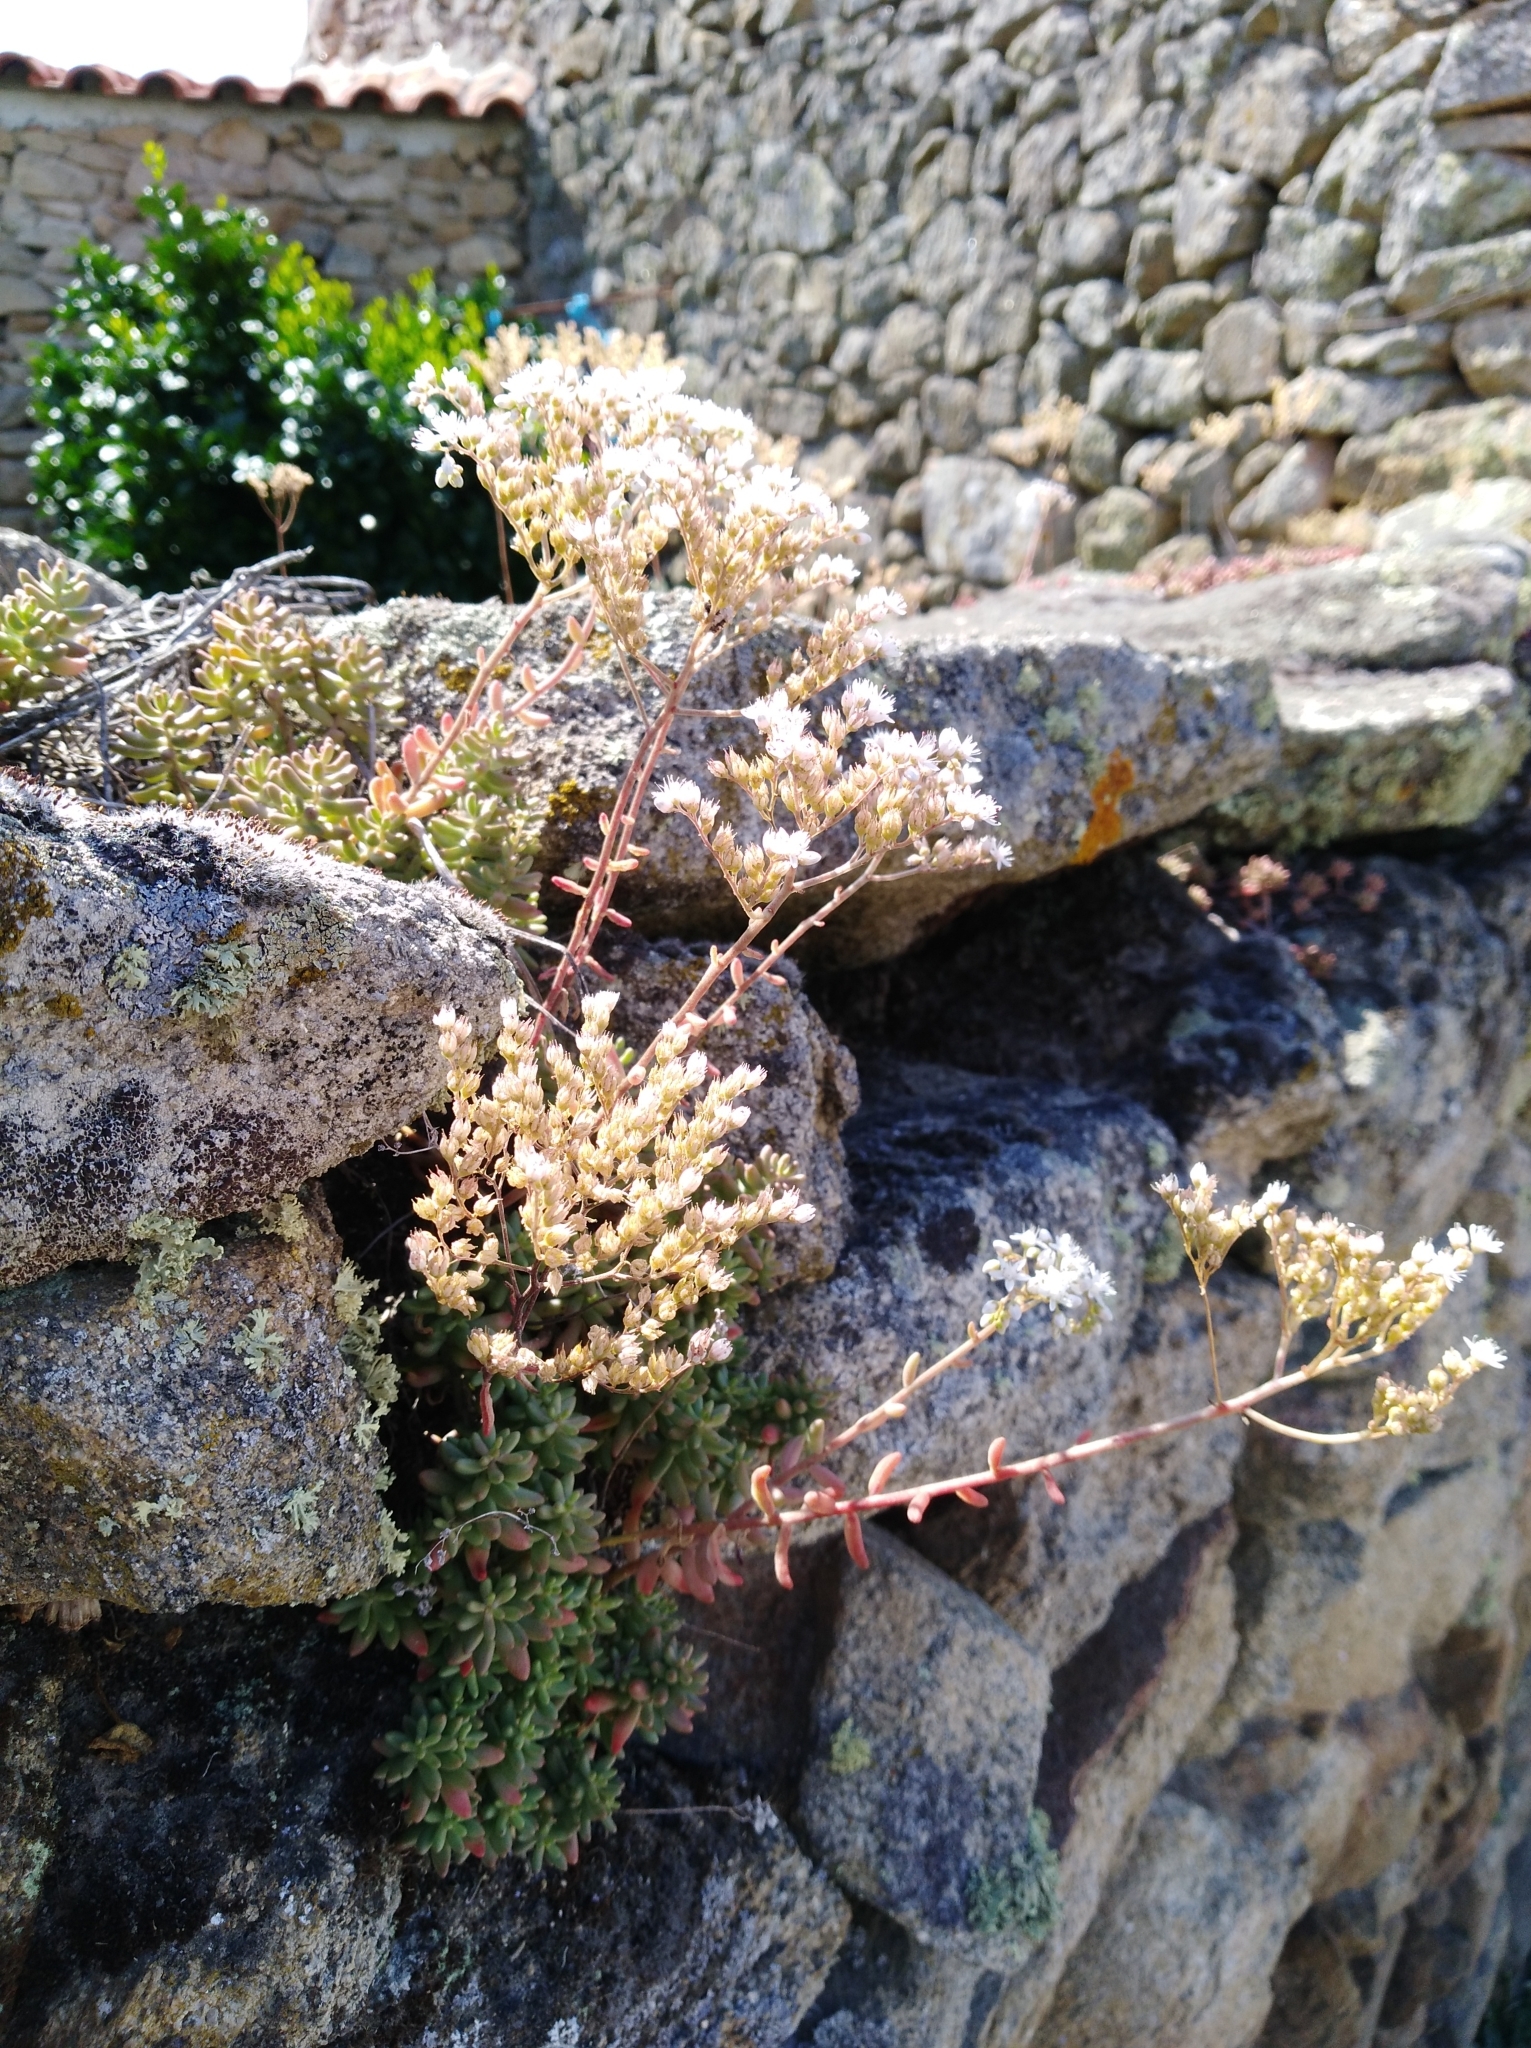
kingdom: Plantae
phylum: Tracheophyta
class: Magnoliopsida
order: Saxifragales
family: Crassulaceae
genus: Sedum
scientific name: Sedum album
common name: White stonecrop
